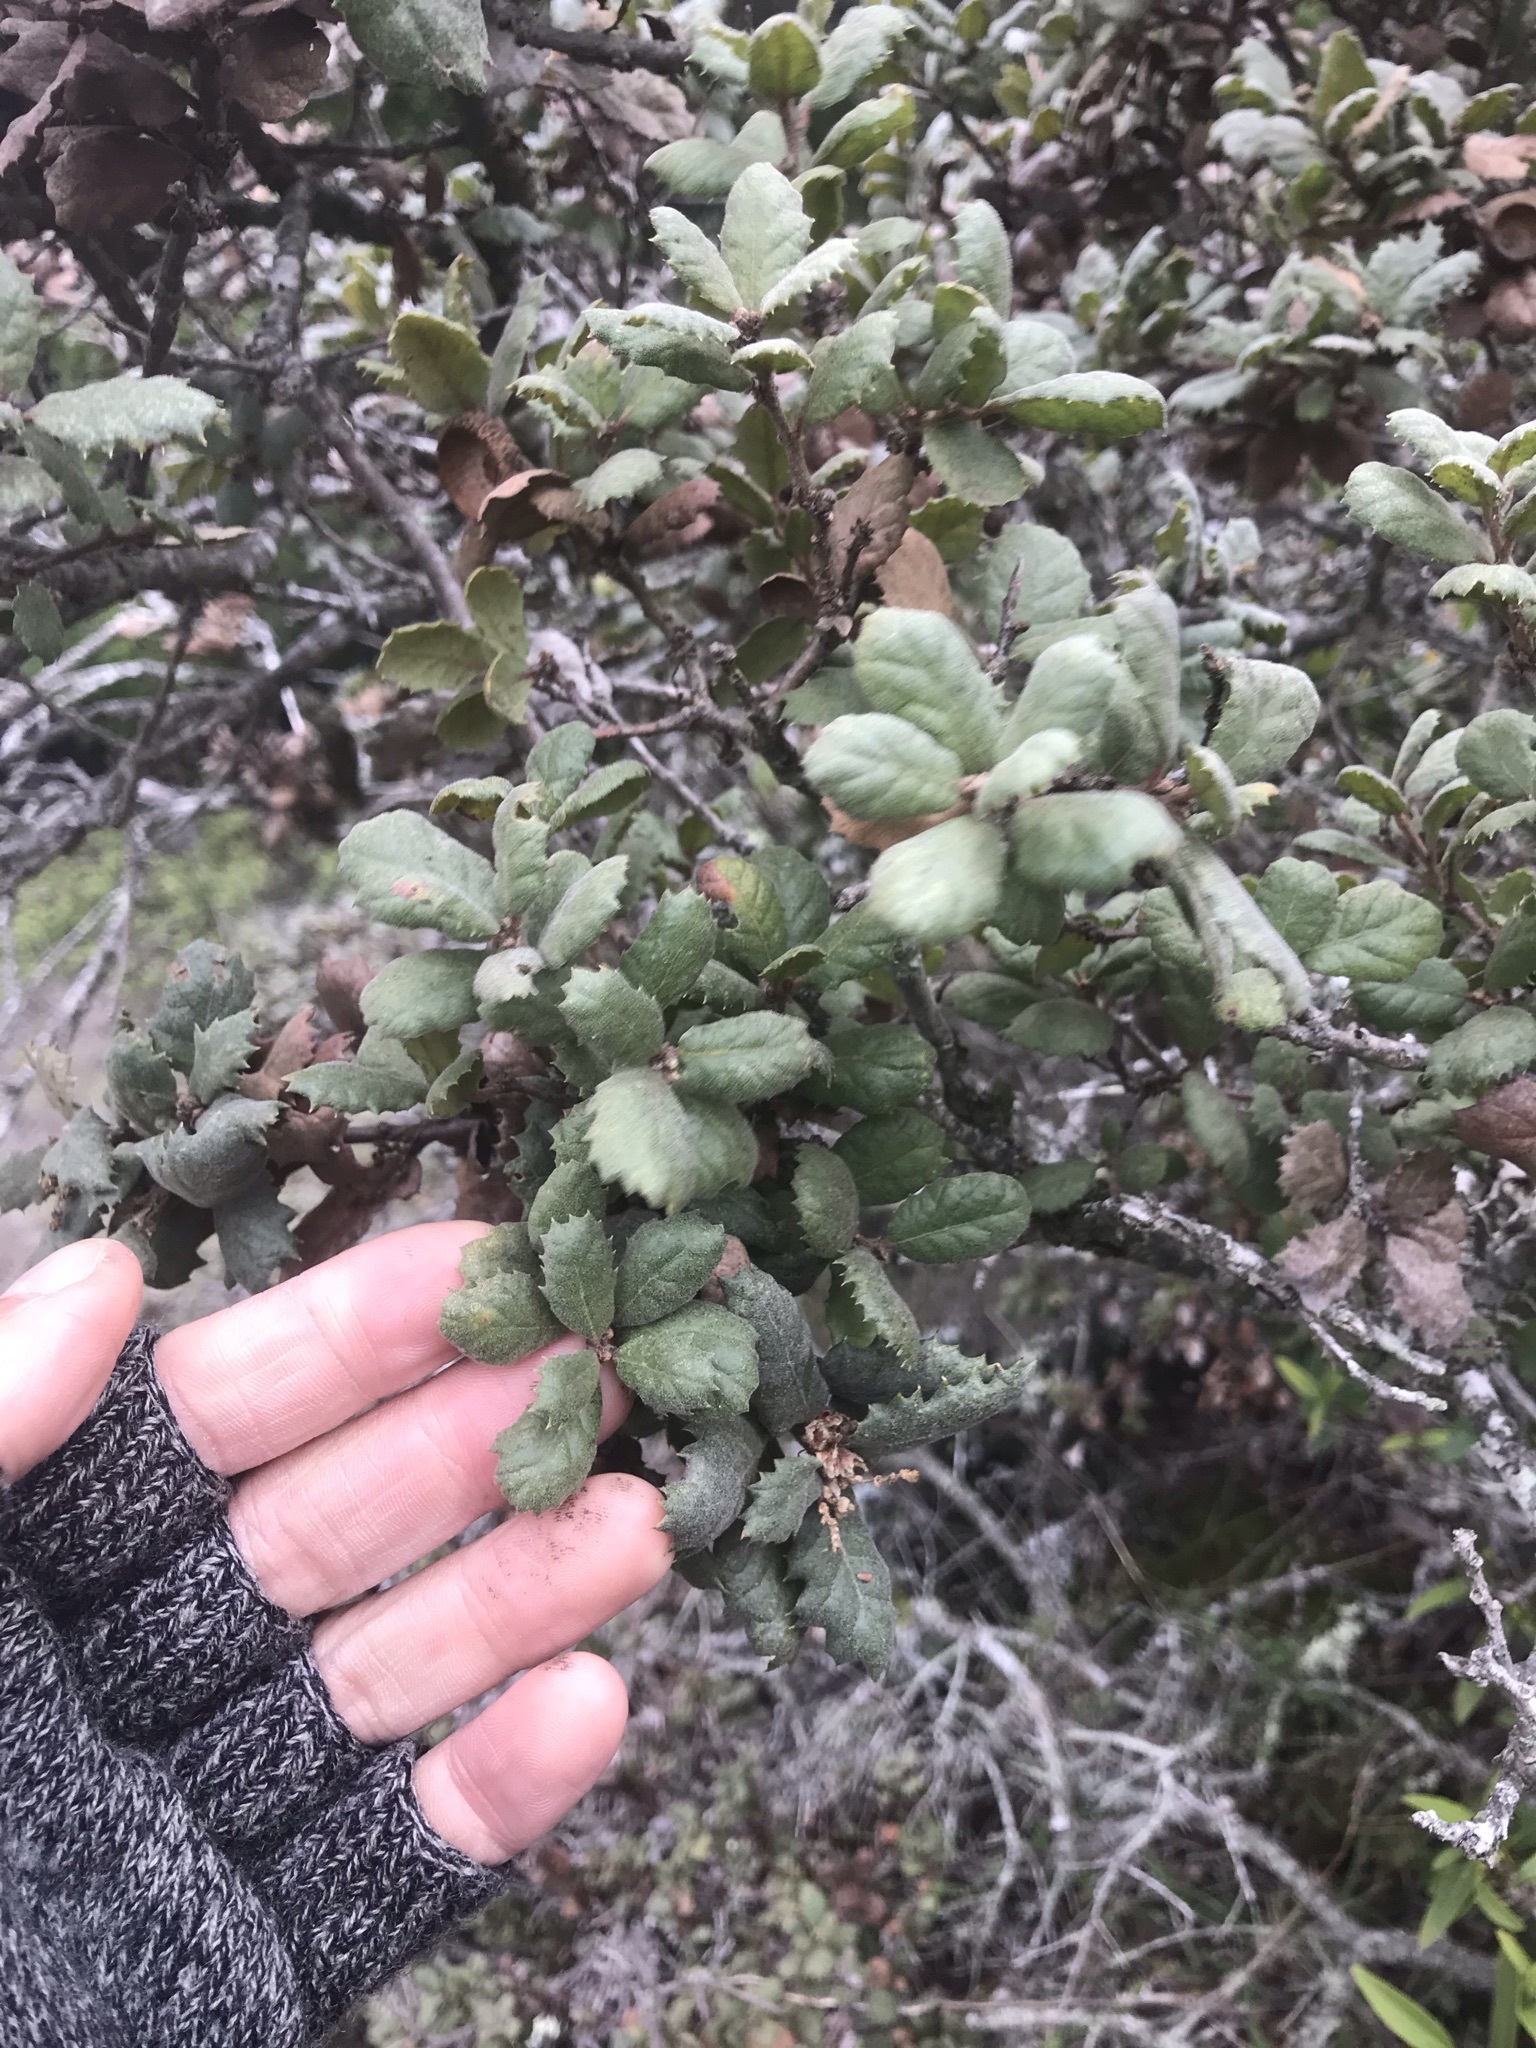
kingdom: Plantae
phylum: Tracheophyta
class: Magnoliopsida
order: Fagales
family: Fagaceae
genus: Quercus
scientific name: Quercus durata
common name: Leather oak
